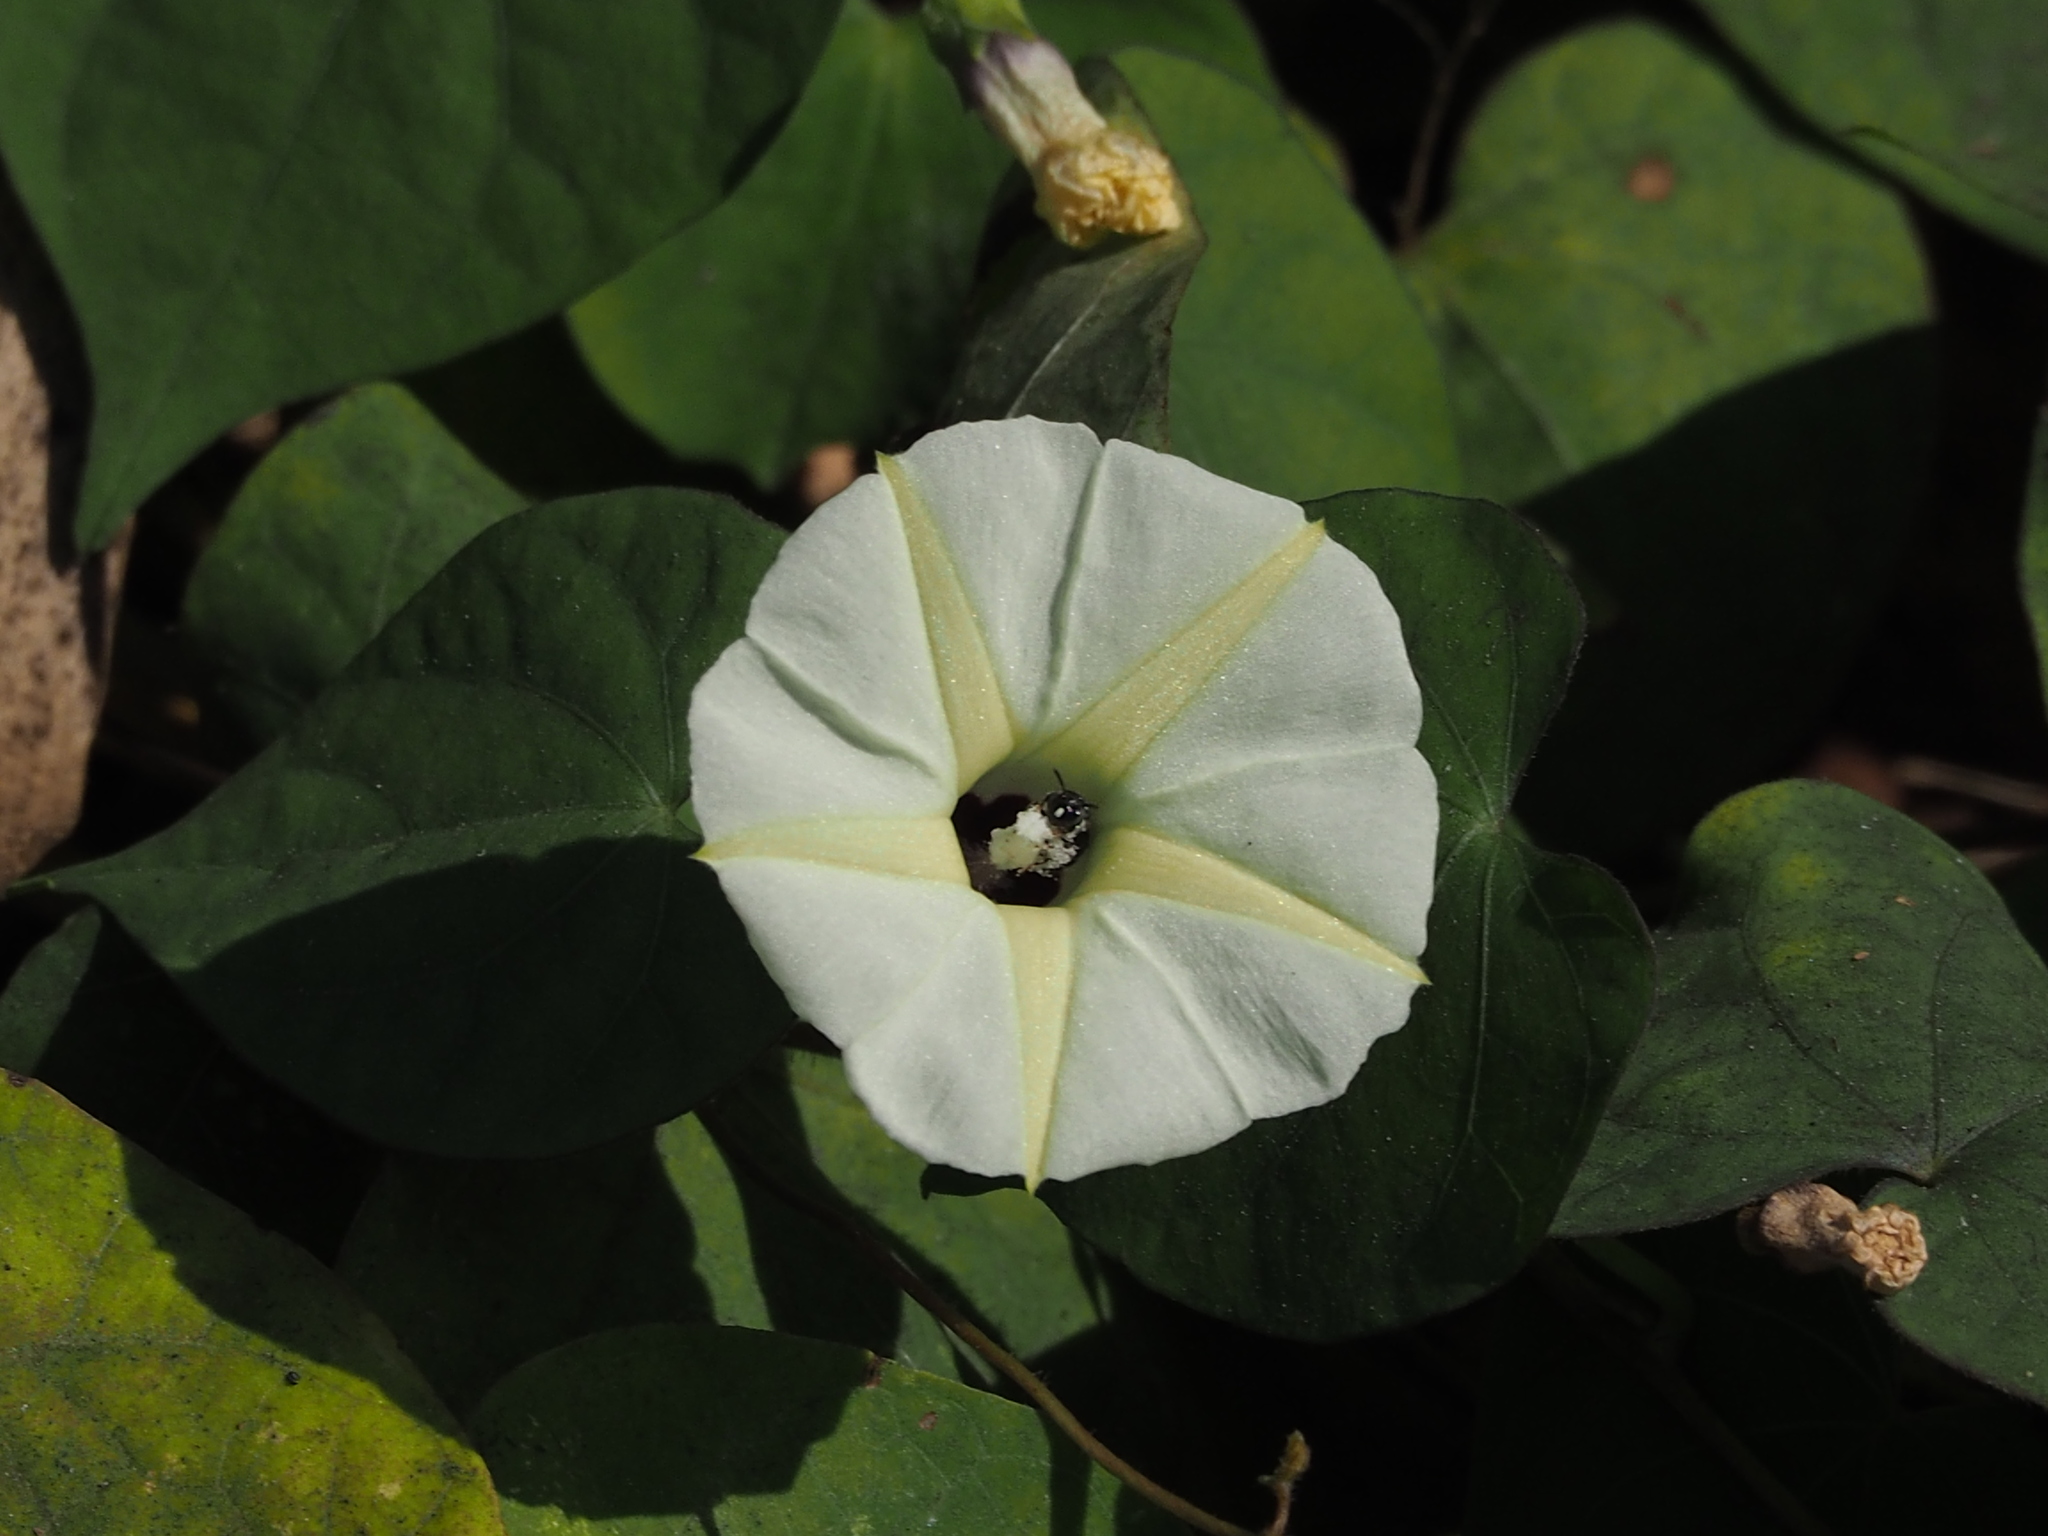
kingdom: Plantae
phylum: Tracheophyta
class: Magnoliopsida
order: Solanales
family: Convolvulaceae
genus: Ipomoea
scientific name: Ipomoea obscura
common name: Obscure morning-glory
